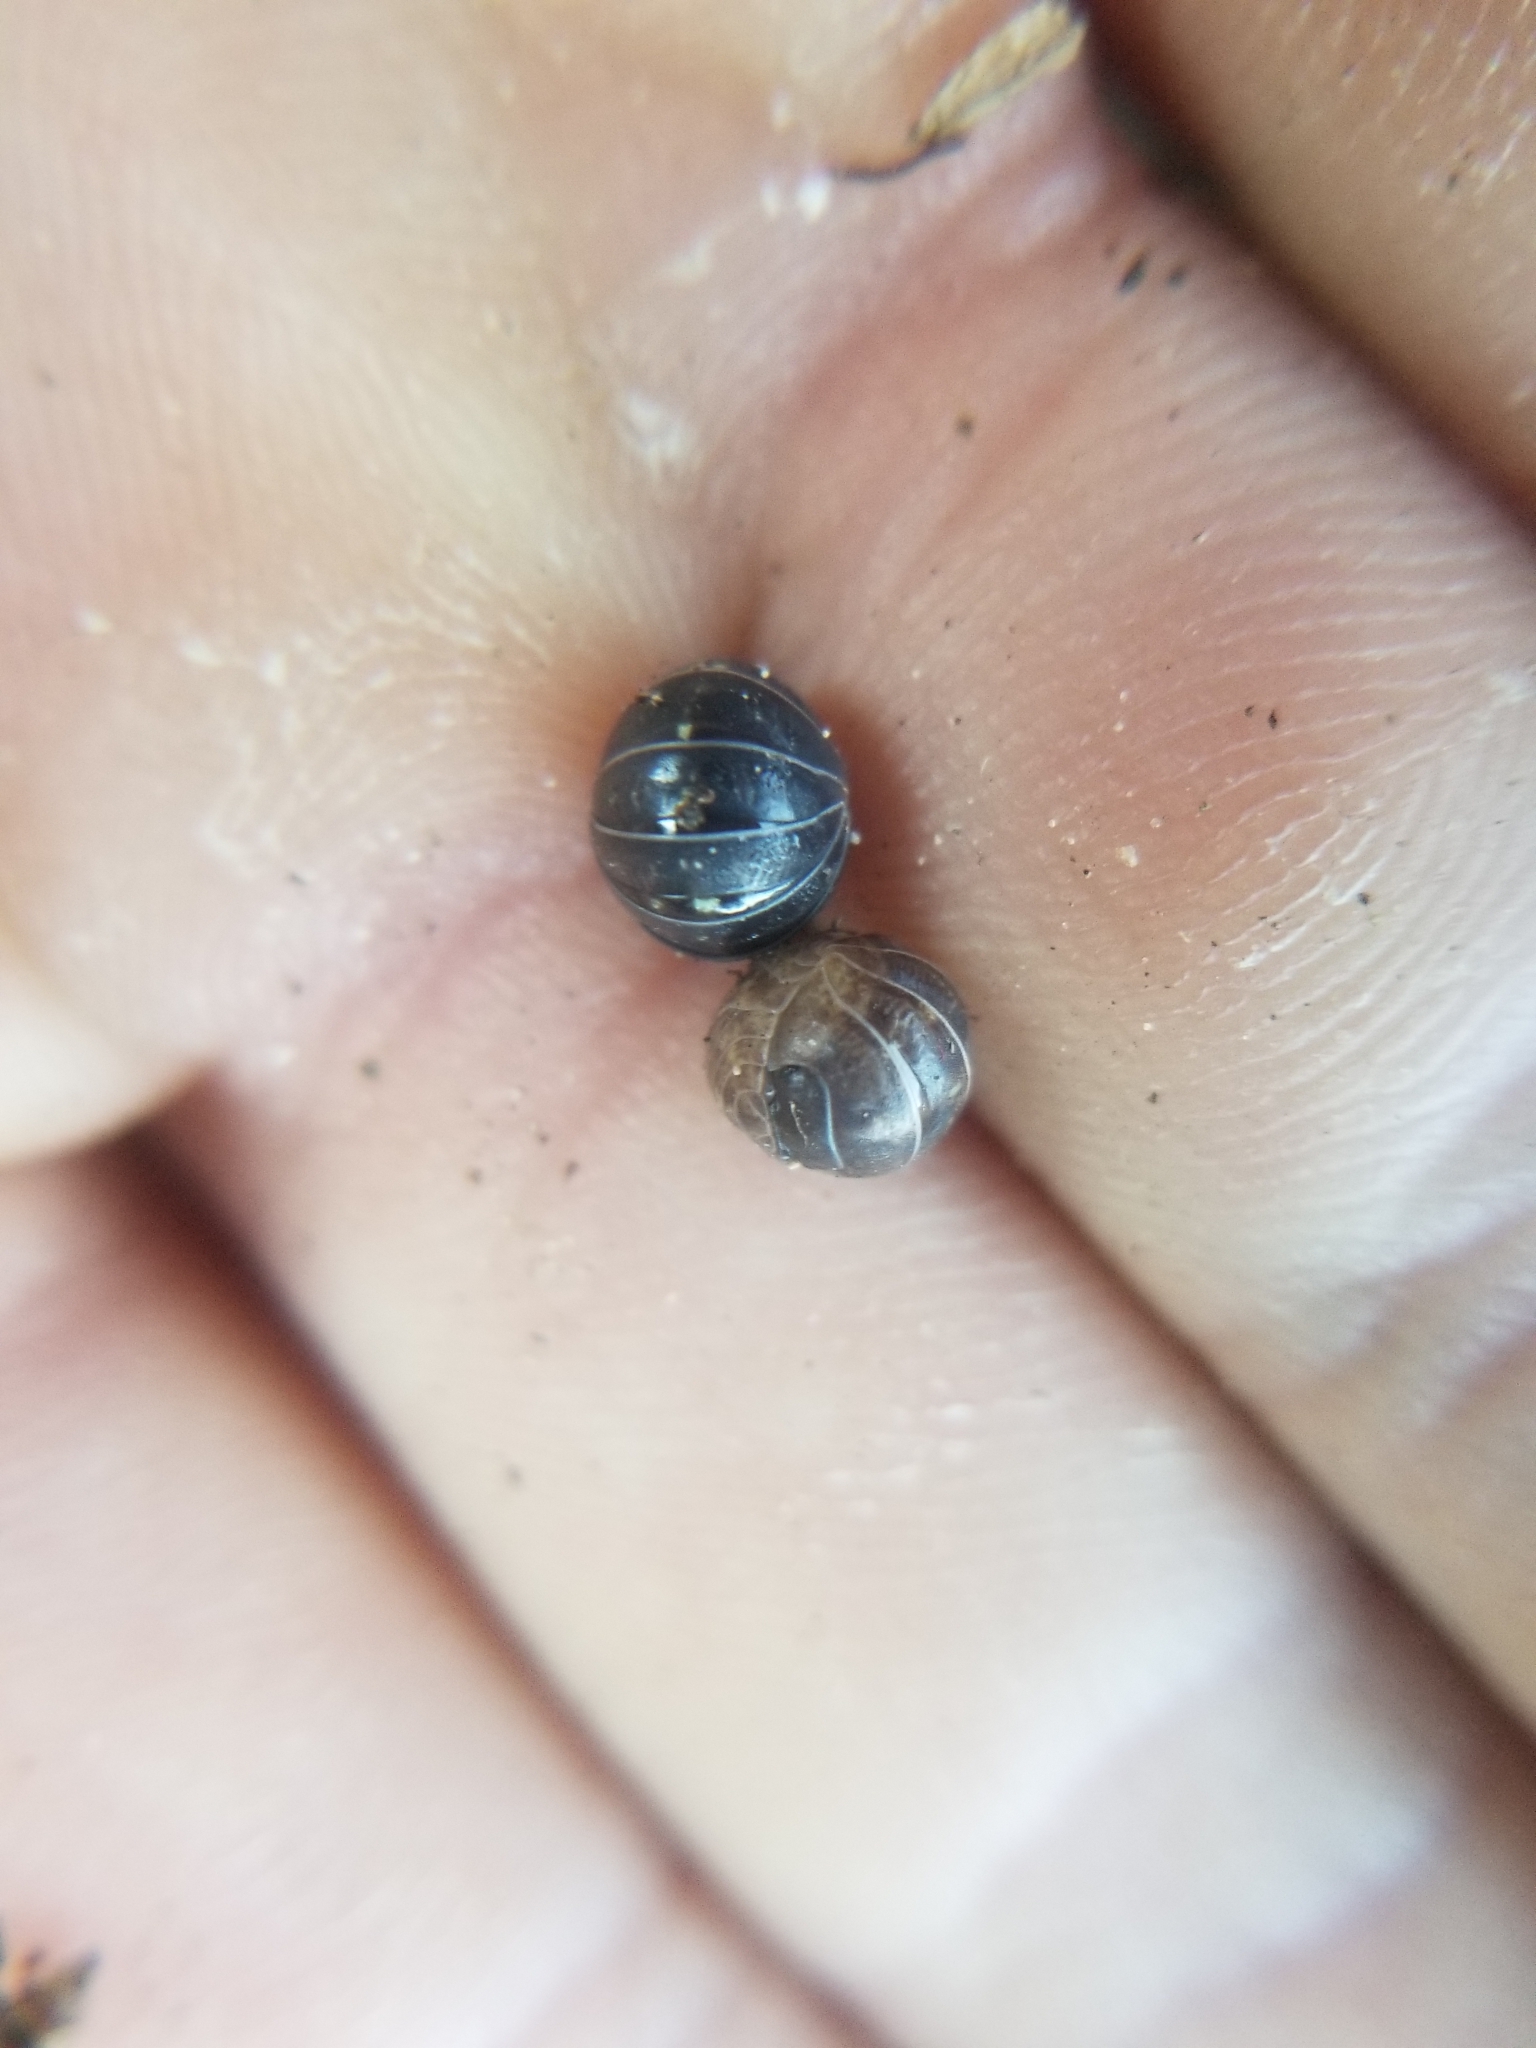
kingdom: Animalia
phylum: Arthropoda
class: Malacostraca
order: Isopoda
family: Armadillidiidae
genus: Armadillidium
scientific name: Armadillidium vulgare
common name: Common pill woodlouse
